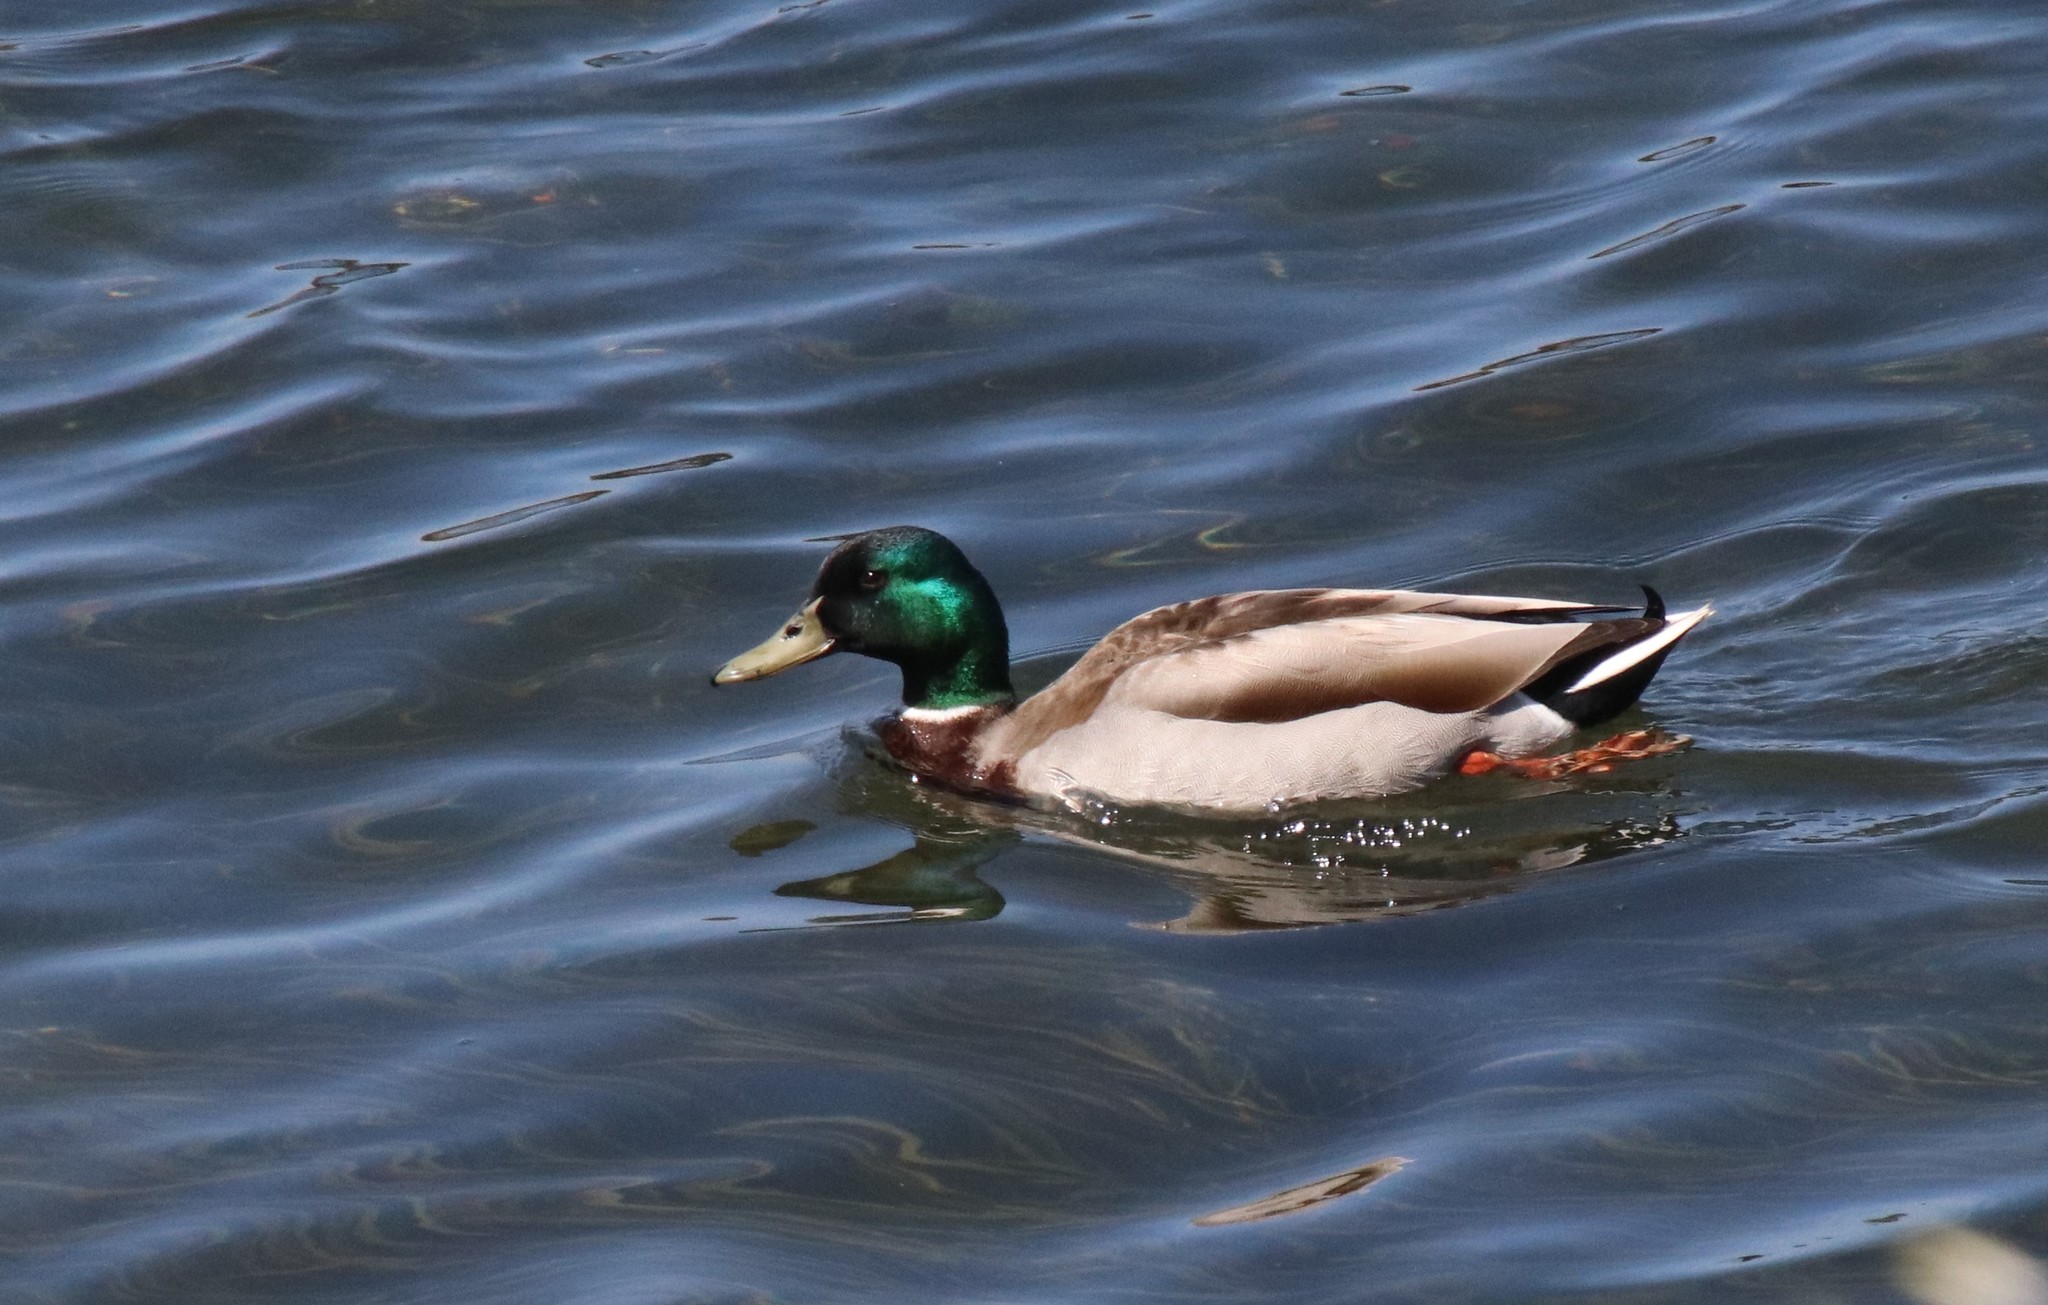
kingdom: Animalia
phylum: Chordata
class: Aves
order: Anseriformes
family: Anatidae
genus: Anas
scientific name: Anas platyrhynchos
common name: Mallard
